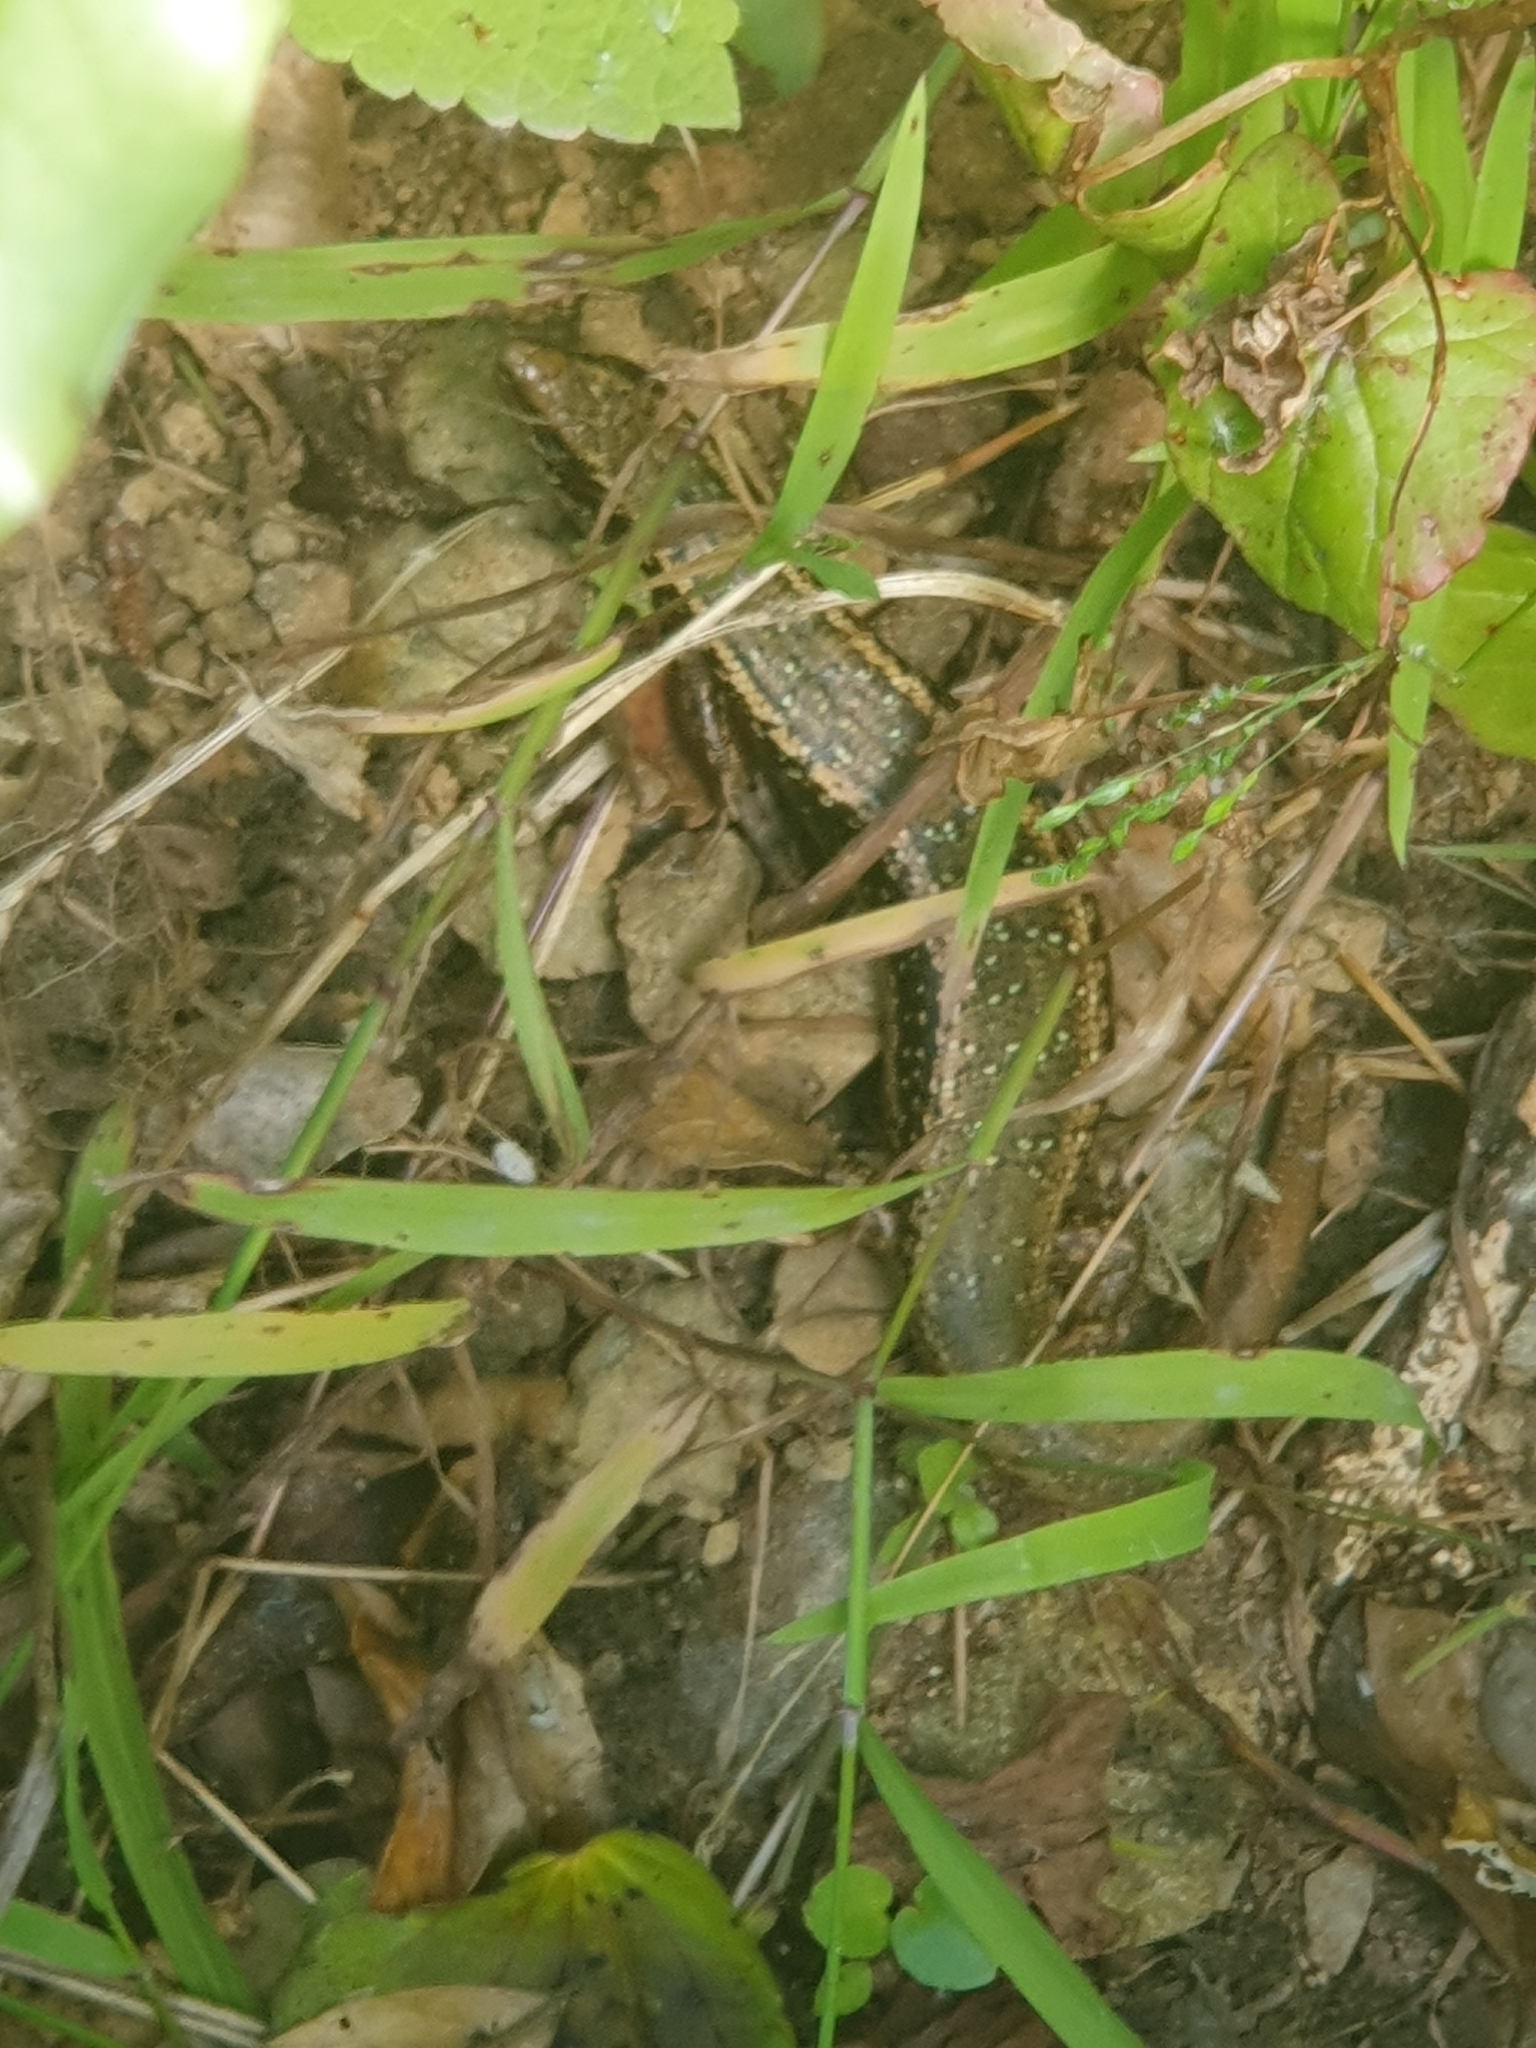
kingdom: Animalia
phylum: Chordata
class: Squamata
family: Scincidae
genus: Oligosoma
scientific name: Oligosoma kokowai
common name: Northern spotted skink
